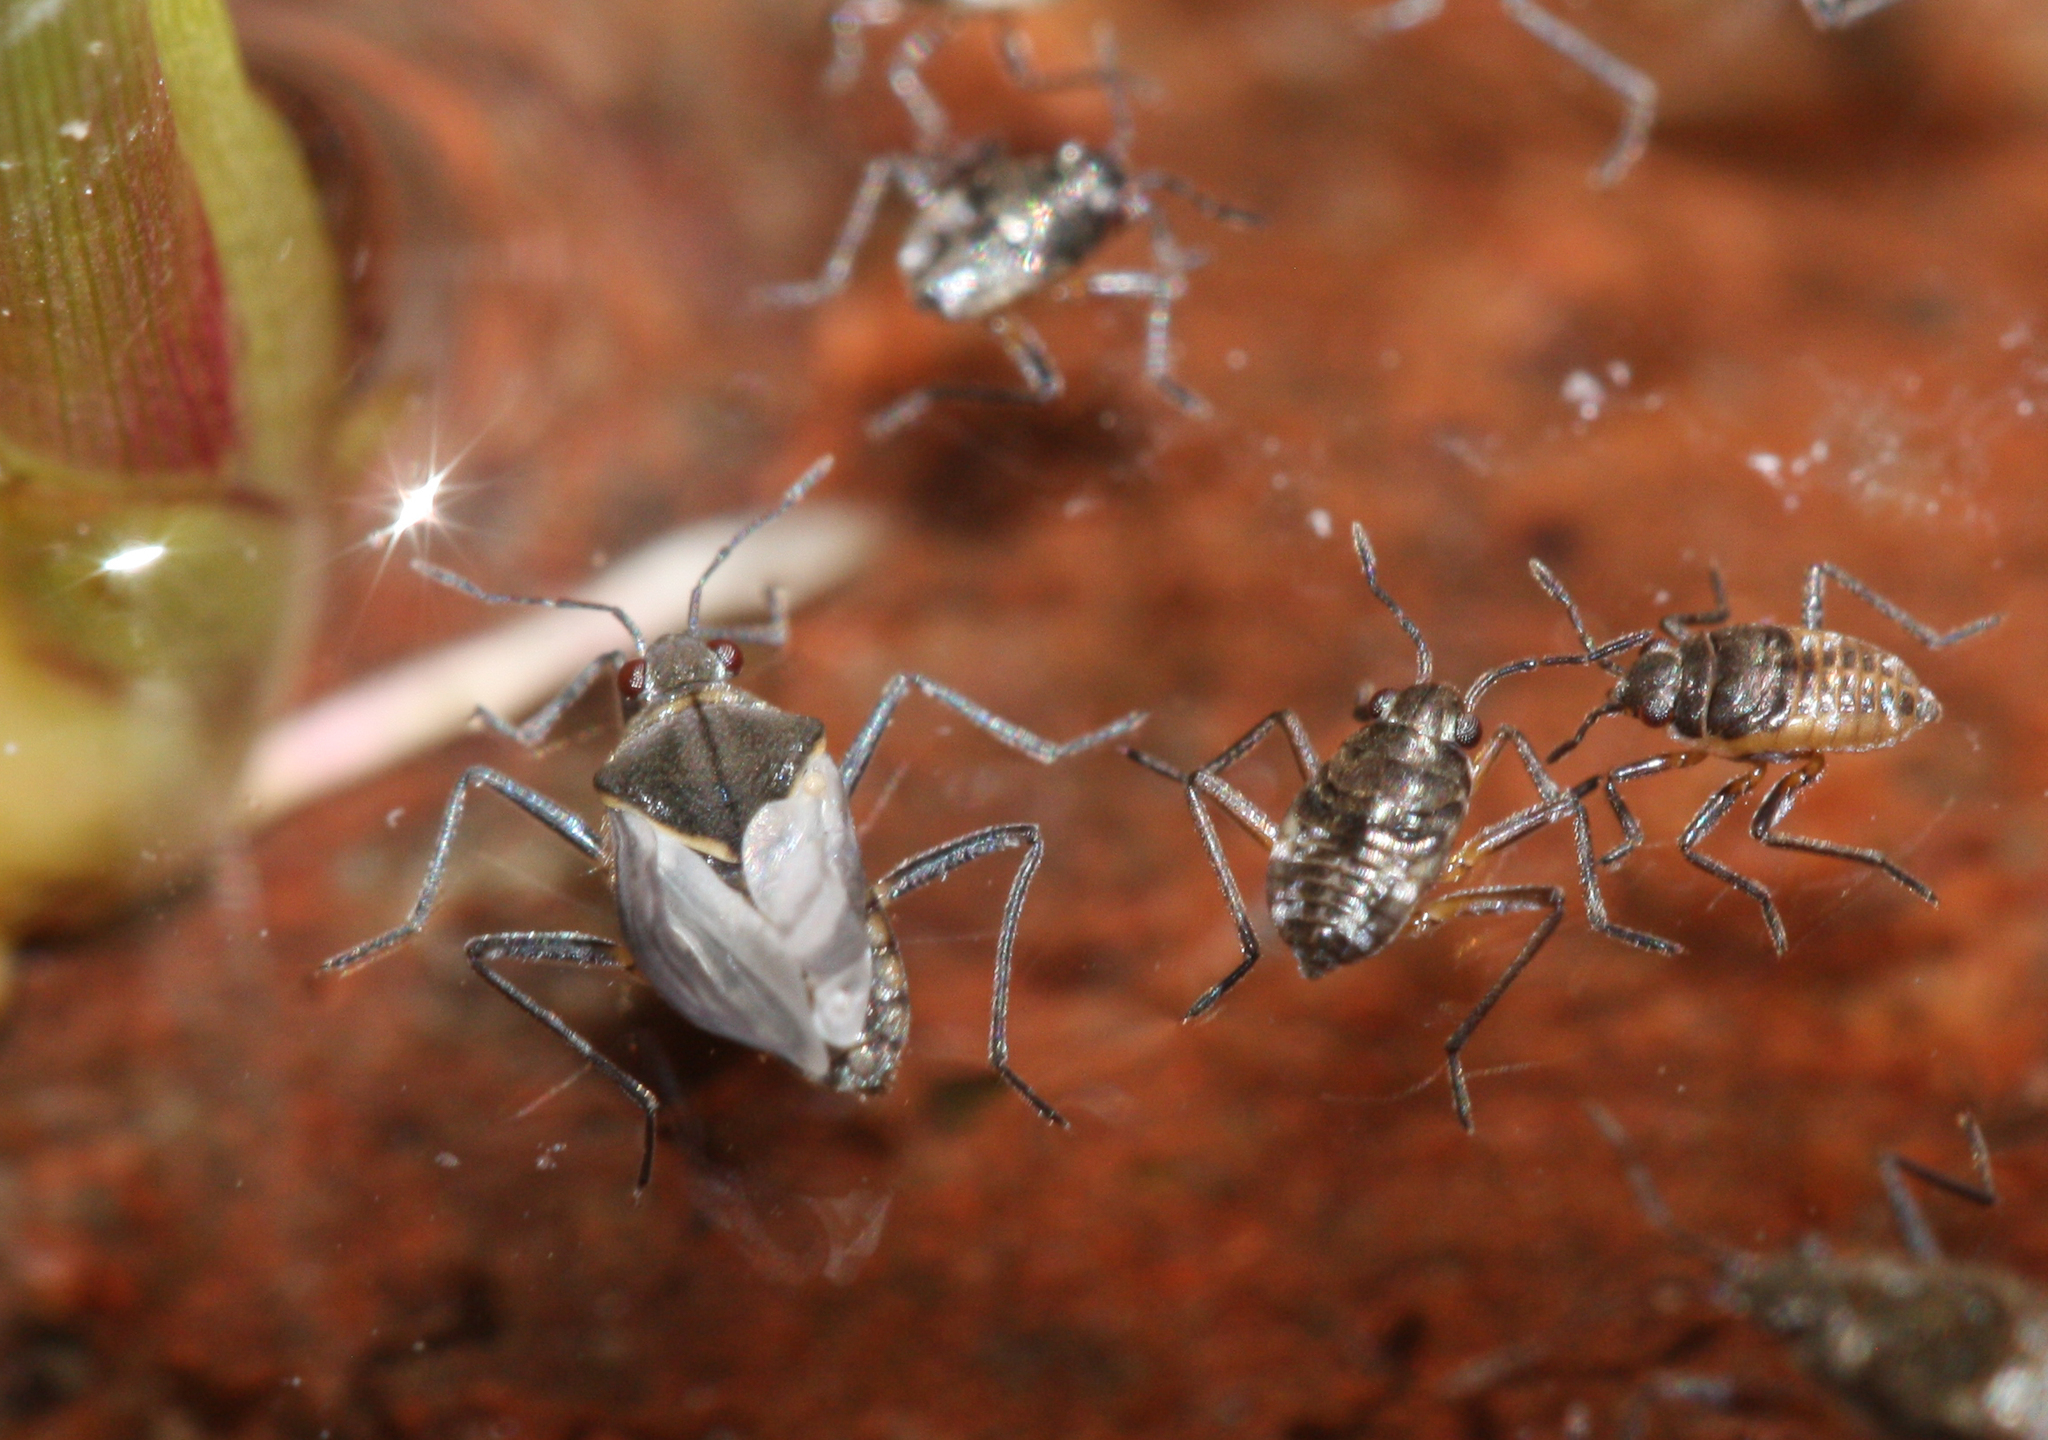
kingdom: Animalia
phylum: Arthropoda
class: Insecta
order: Hemiptera
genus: Kirkaldya
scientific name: Kirkaldya
